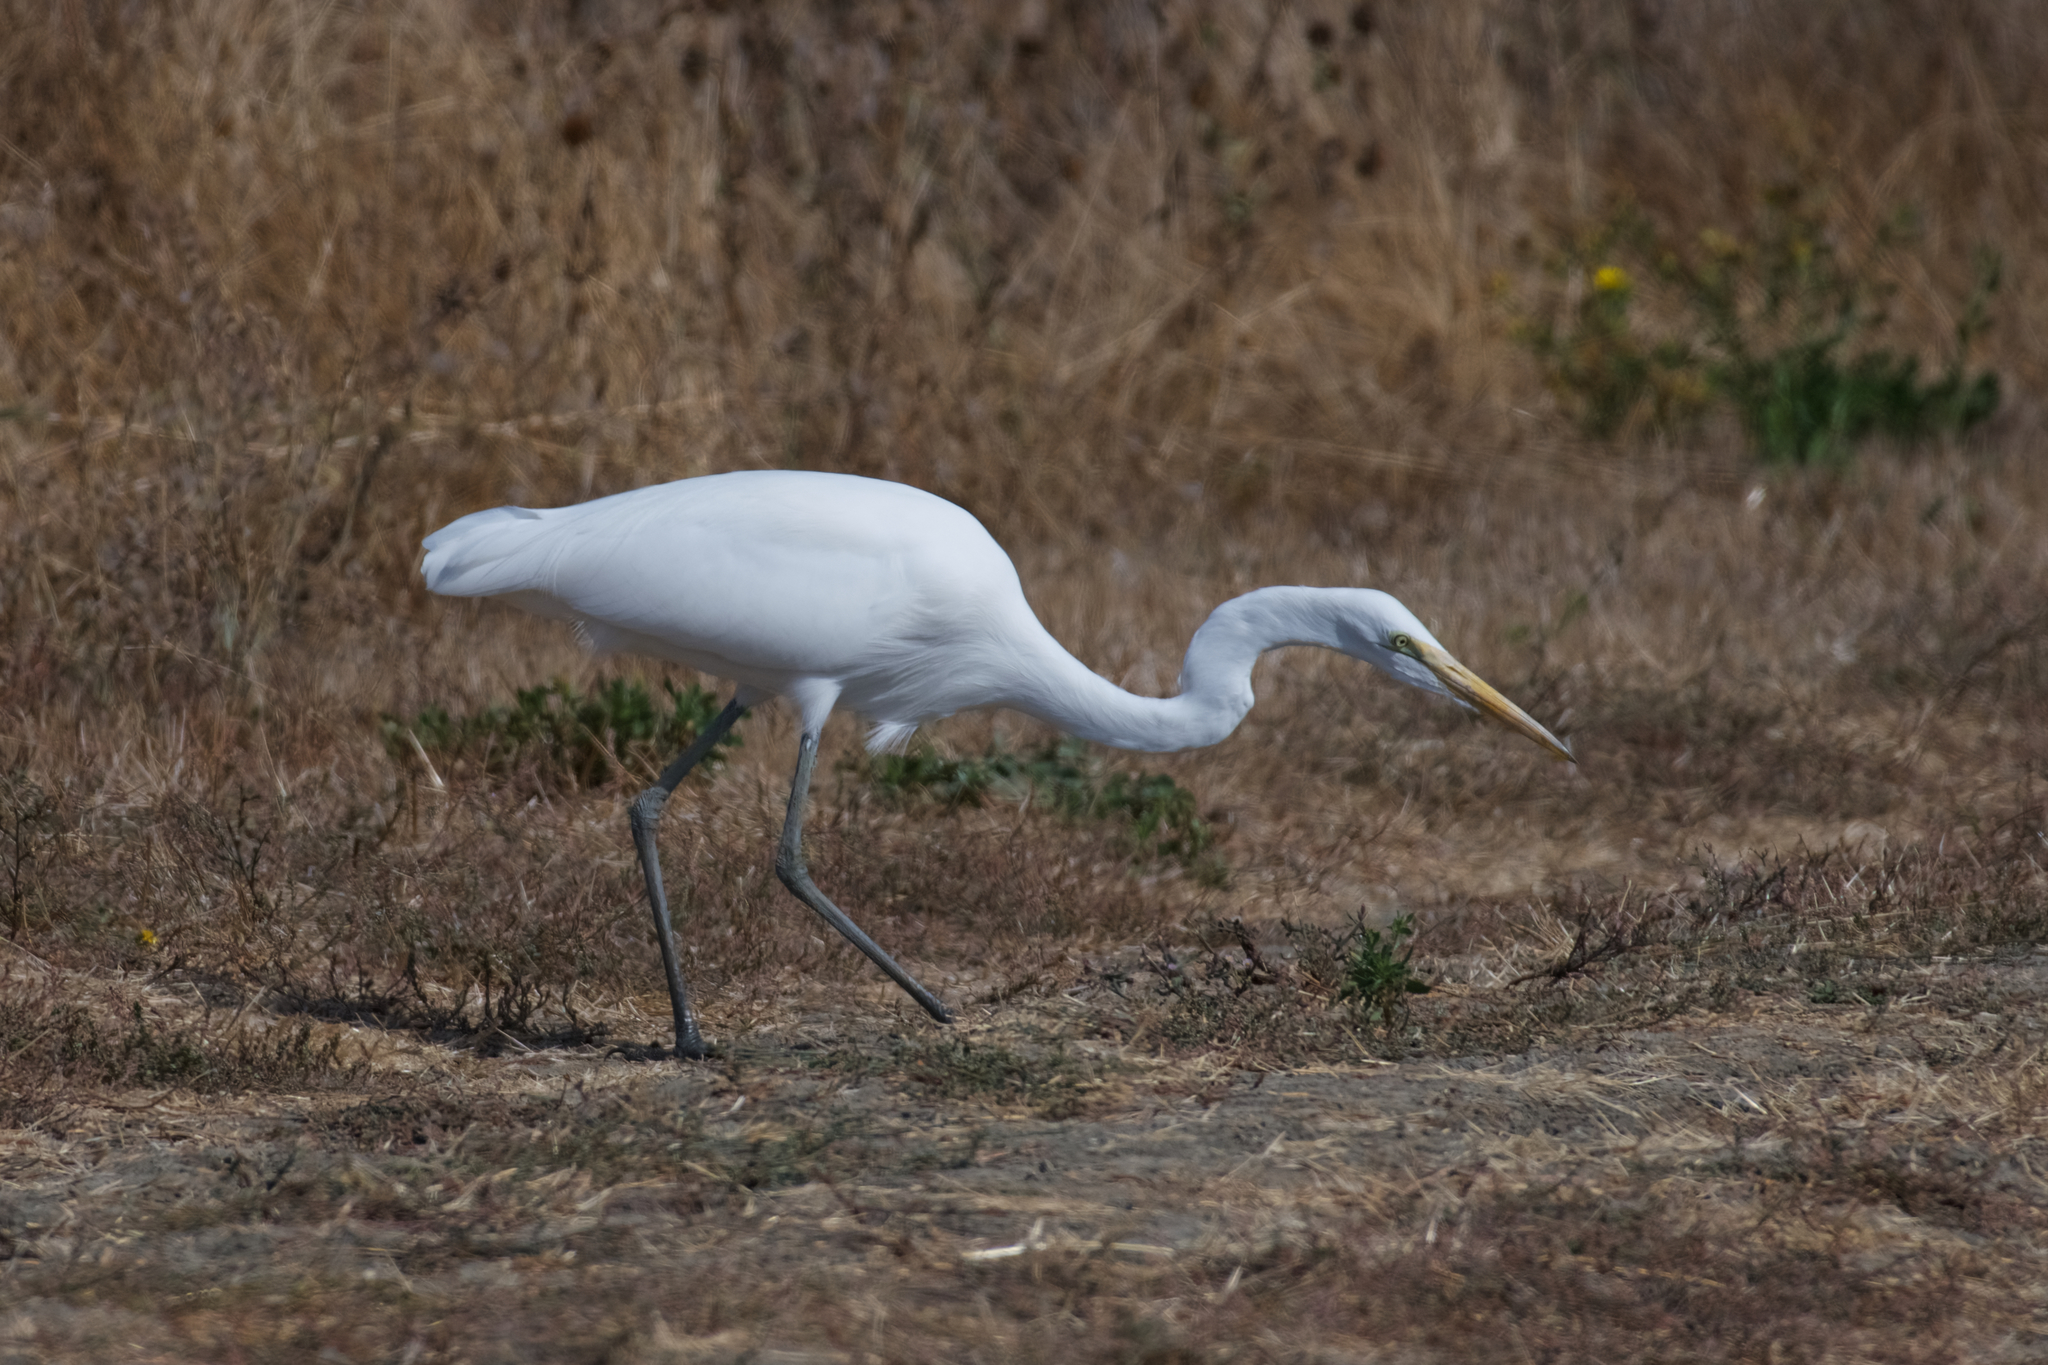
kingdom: Animalia
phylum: Chordata
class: Aves
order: Pelecaniformes
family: Ardeidae
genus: Ardea
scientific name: Ardea alba
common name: Great egret
